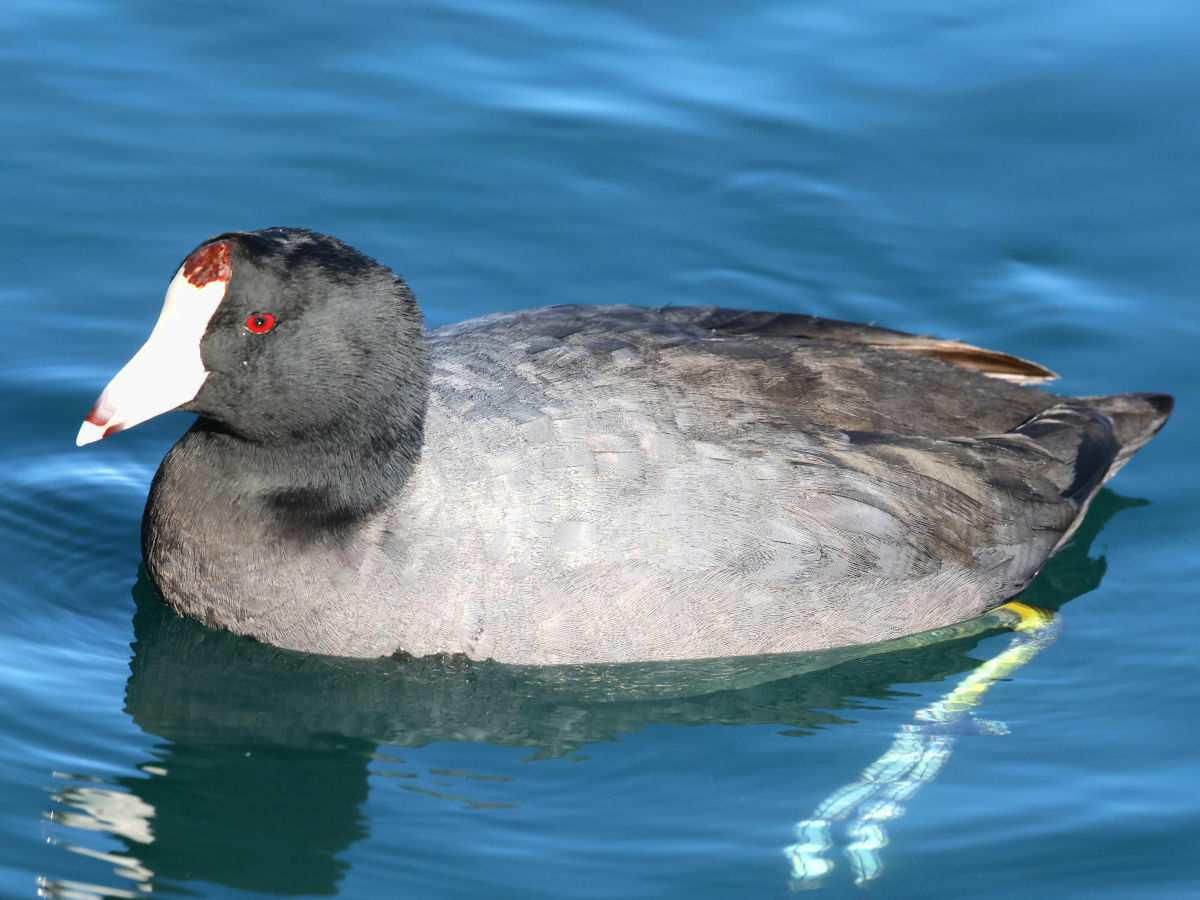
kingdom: Animalia
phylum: Chordata
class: Aves
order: Gruiformes
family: Rallidae
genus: Fulica
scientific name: Fulica americana
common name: American coot
